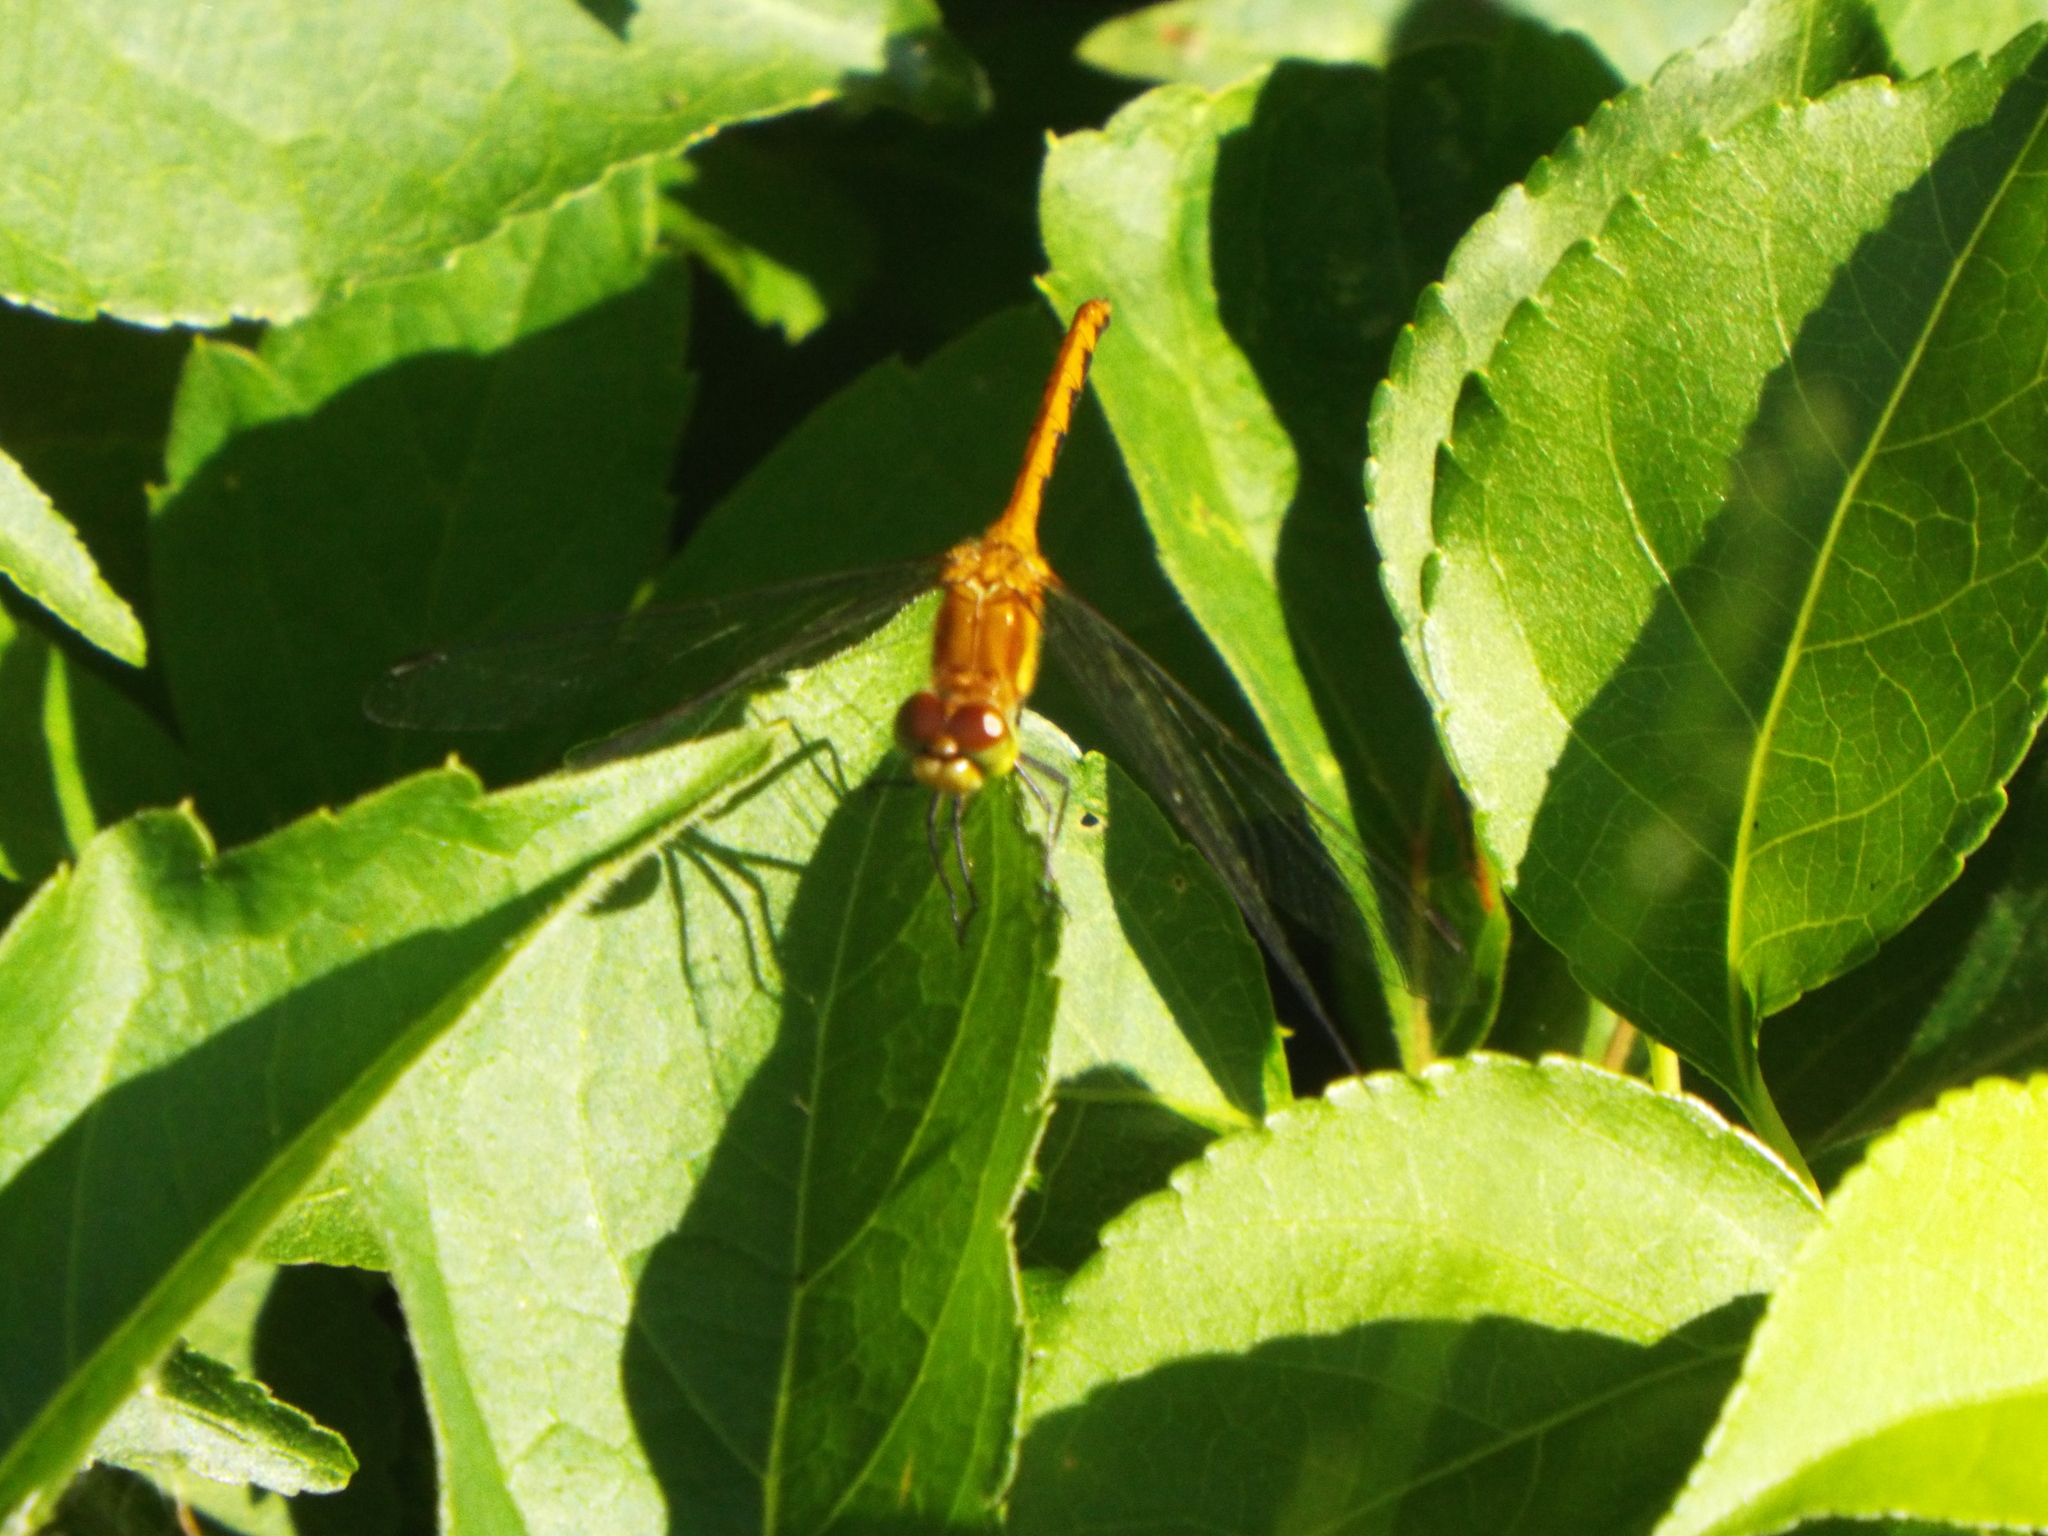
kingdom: Animalia
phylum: Arthropoda
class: Insecta
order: Odonata
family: Libellulidae
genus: Sympetrum
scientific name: Sympetrum
